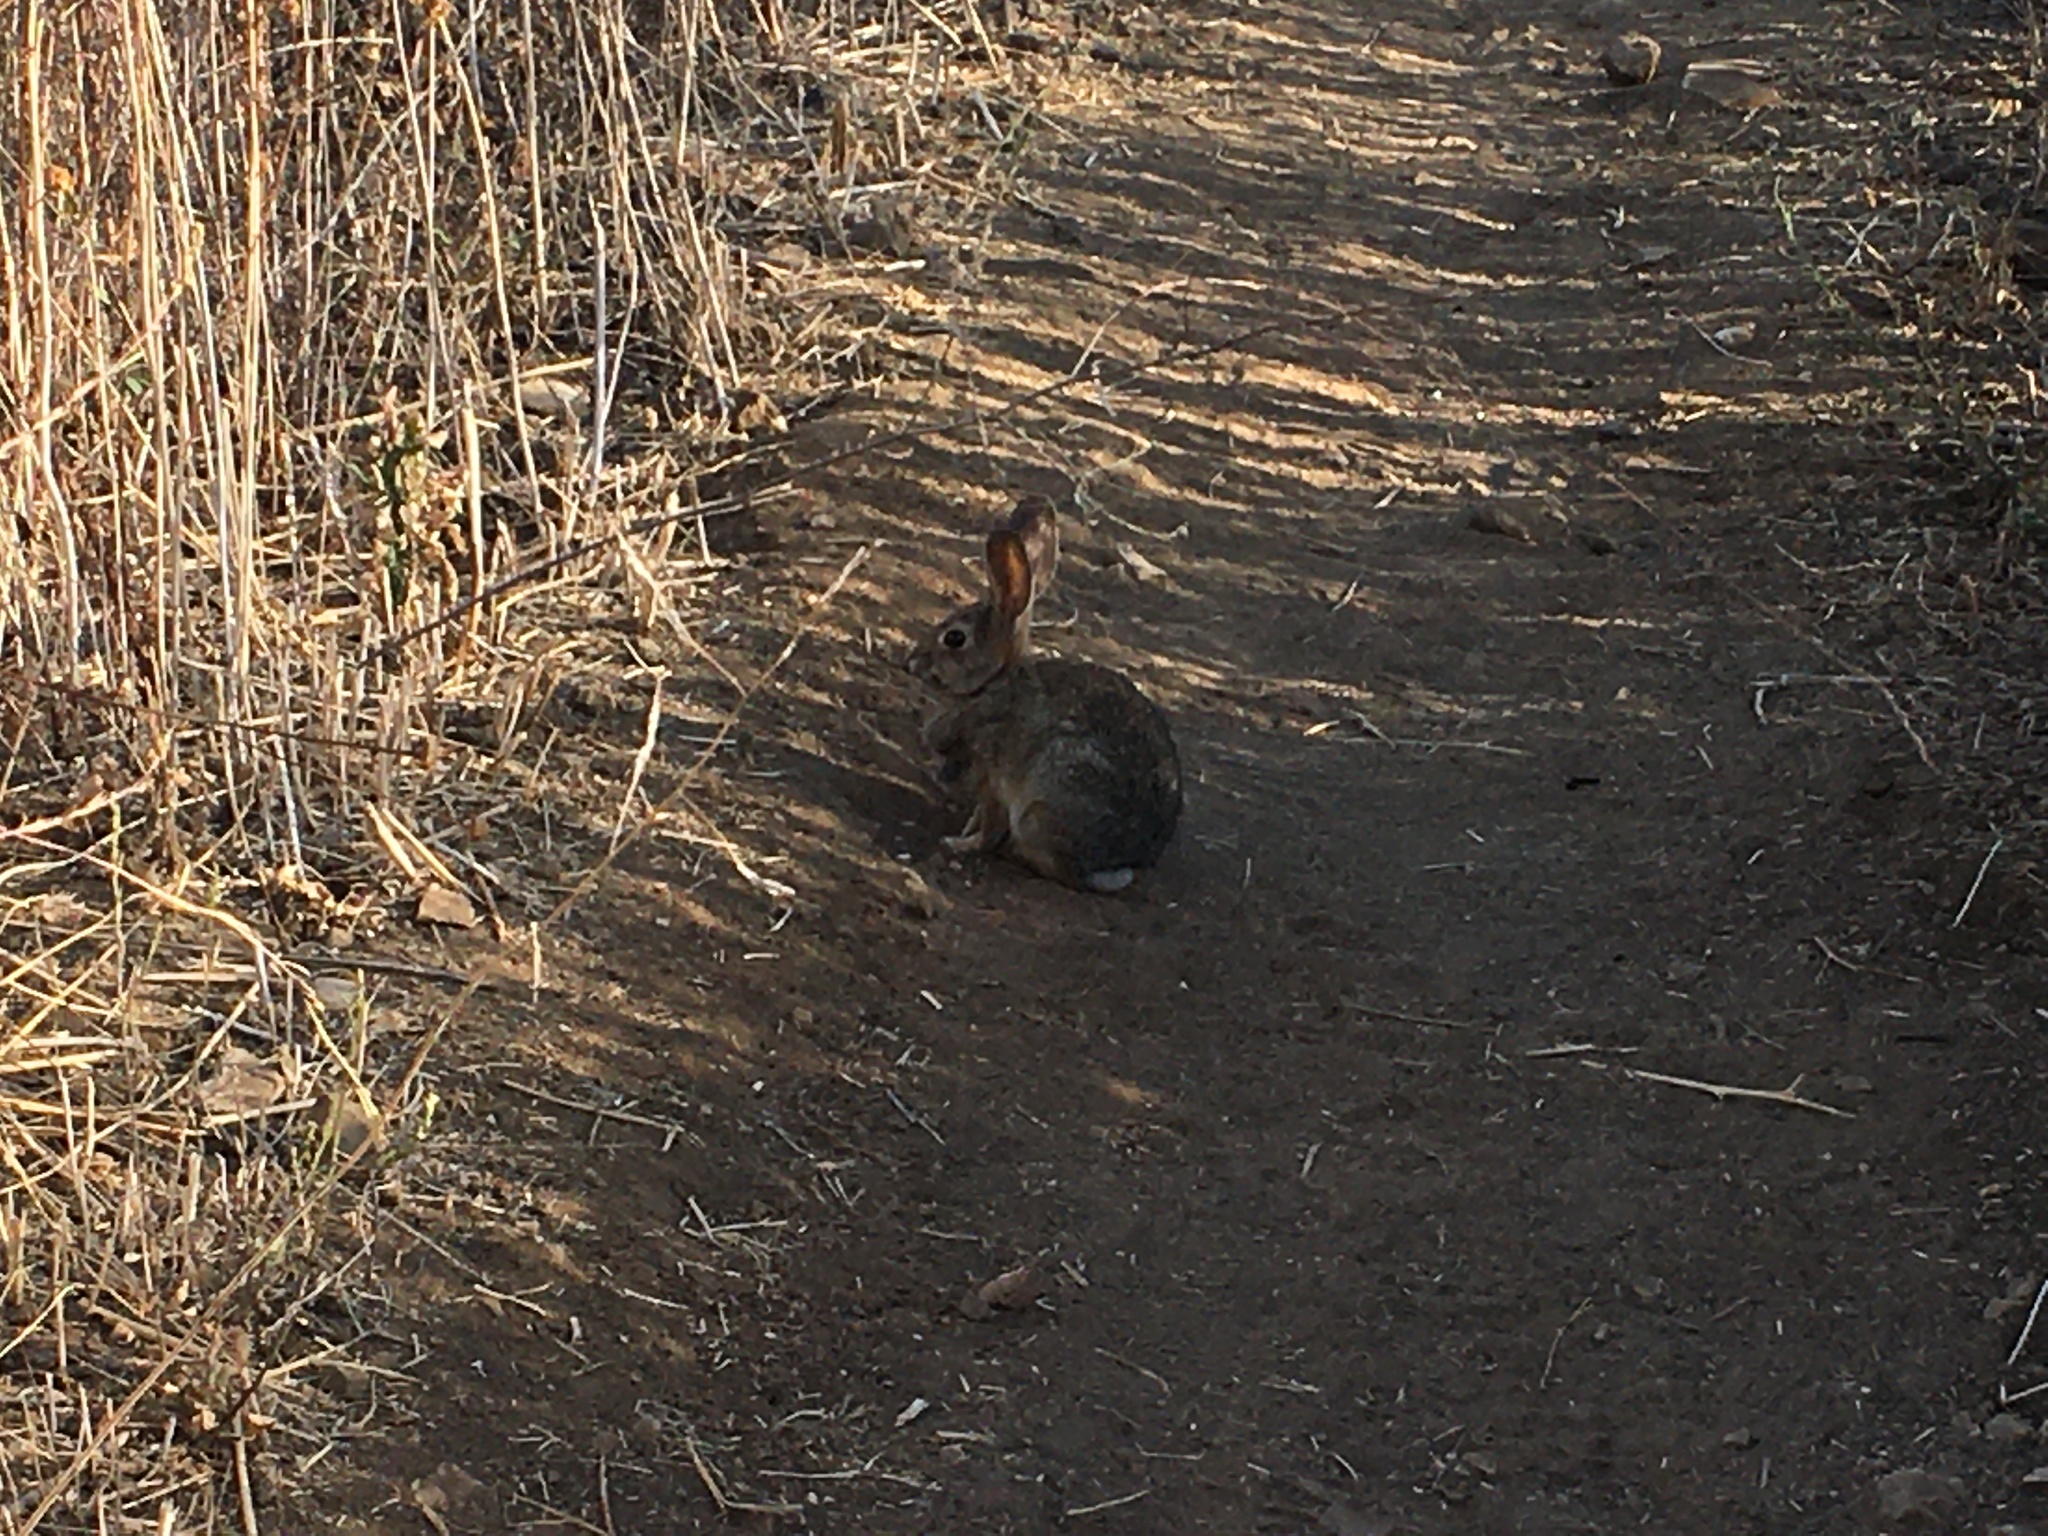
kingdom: Animalia
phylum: Chordata
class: Mammalia
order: Lagomorpha
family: Leporidae
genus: Sylvilagus
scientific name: Sylvilagus audubonii
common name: Desert cottontail
